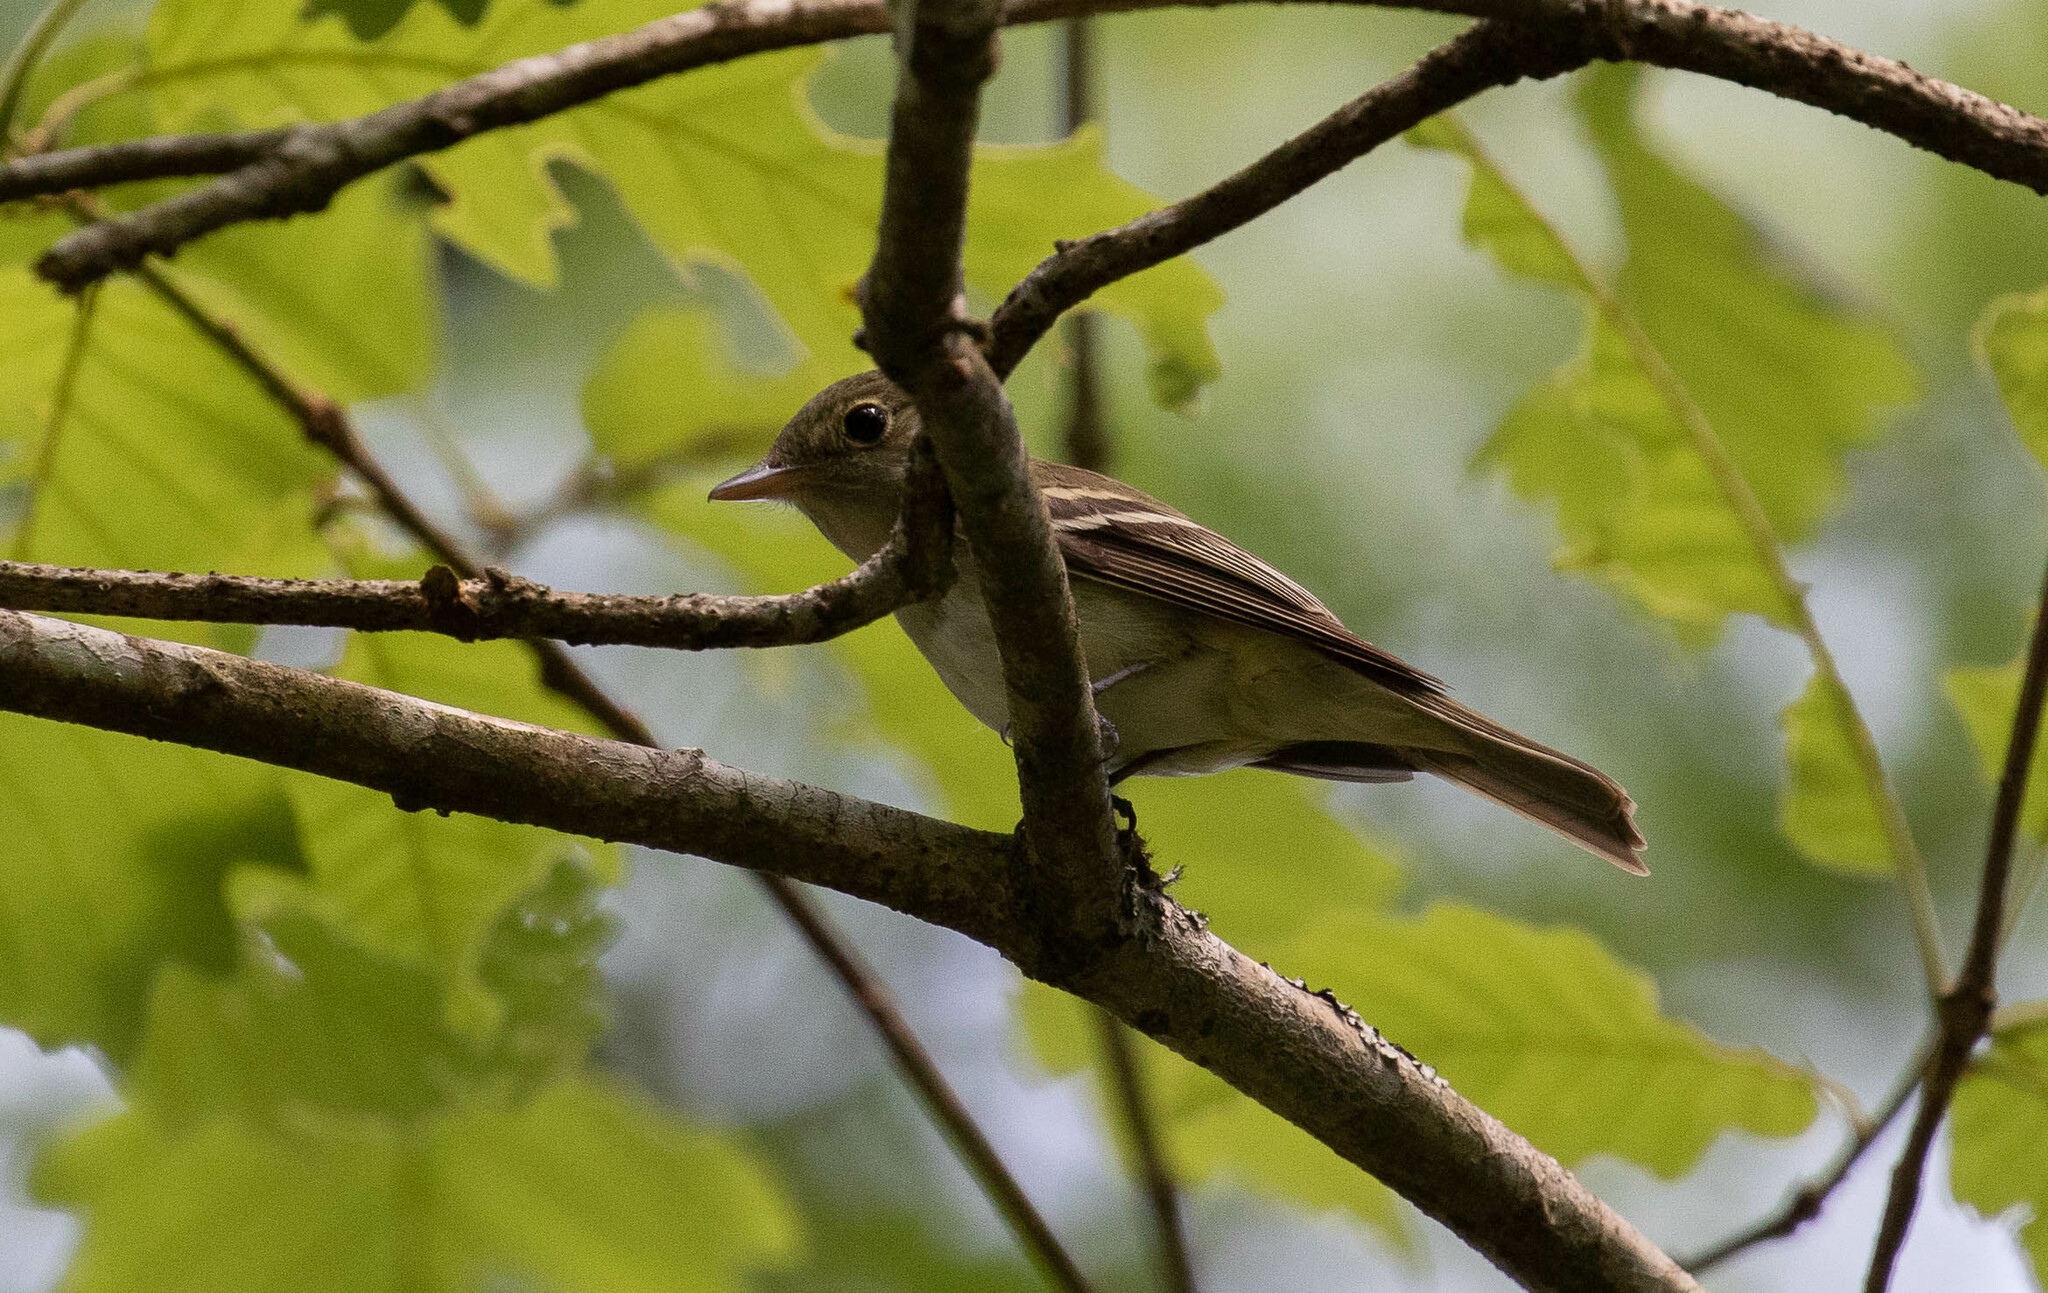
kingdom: Animalia
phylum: Chordata
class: Aves
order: Passeriformes
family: Tyrannidae
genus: Empidonax
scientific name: Empidonax virescens
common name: Acadian flycatcher
